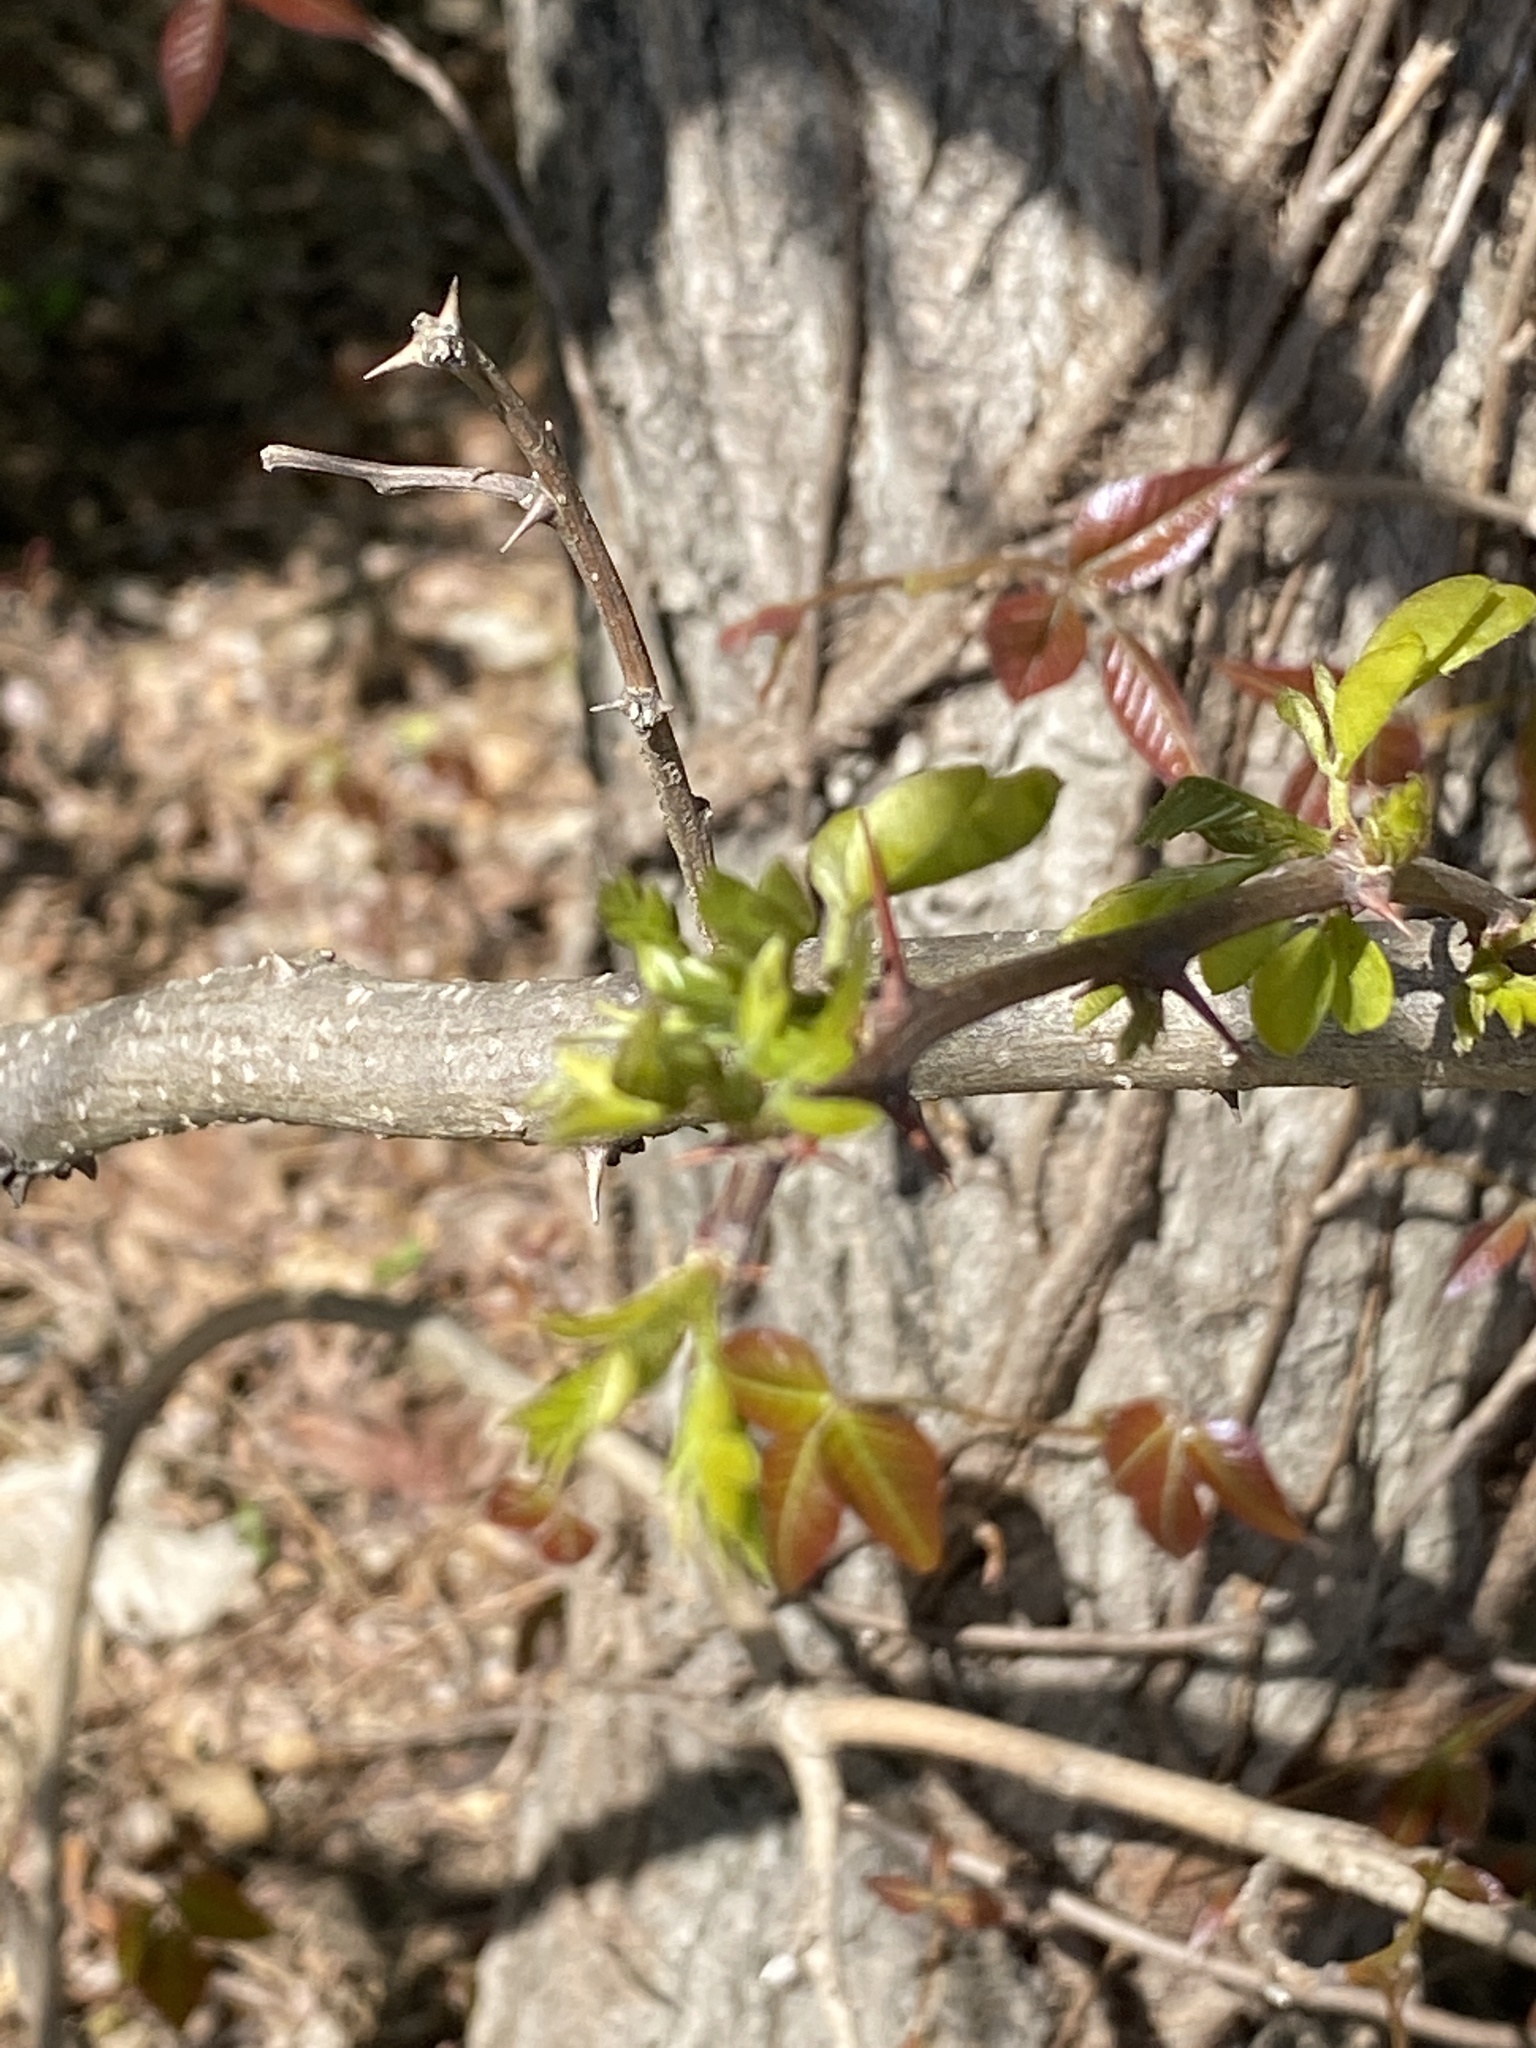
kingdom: Plantae
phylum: Tracheophyta
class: Magnoliopsida
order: Fabales
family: Fabaceae
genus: Robinia
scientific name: Robinia pseudoacacia
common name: Black locust
